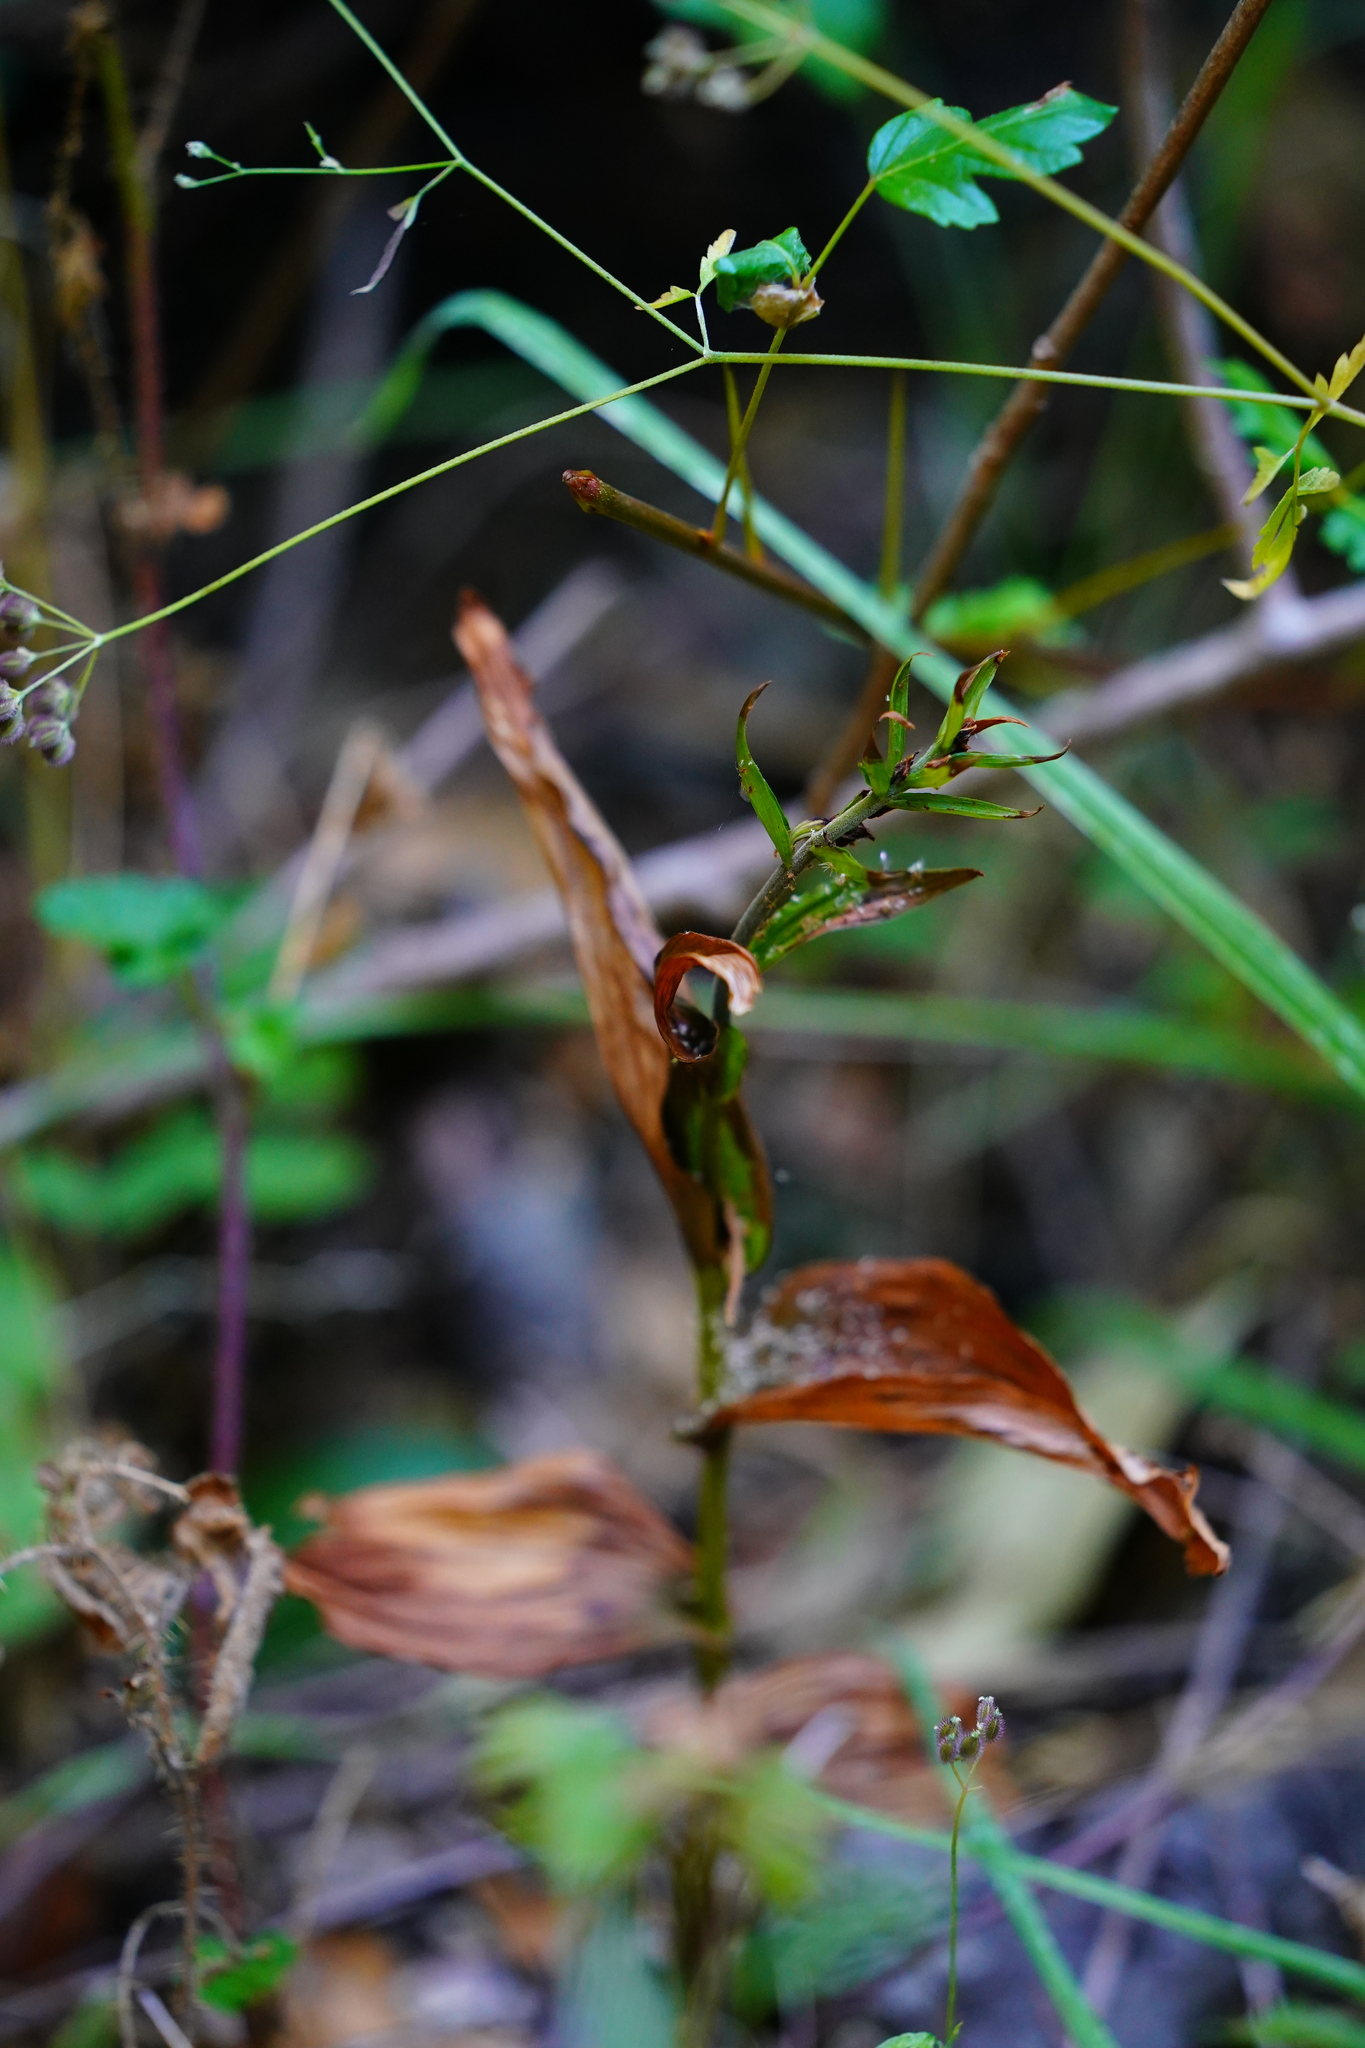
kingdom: Plantae
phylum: Tracheophyta
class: Liliopsida
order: Asparagales
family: Orchidaceae
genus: Epipactis
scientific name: Epipactis helleborine
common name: Broad-leaved helleborine
